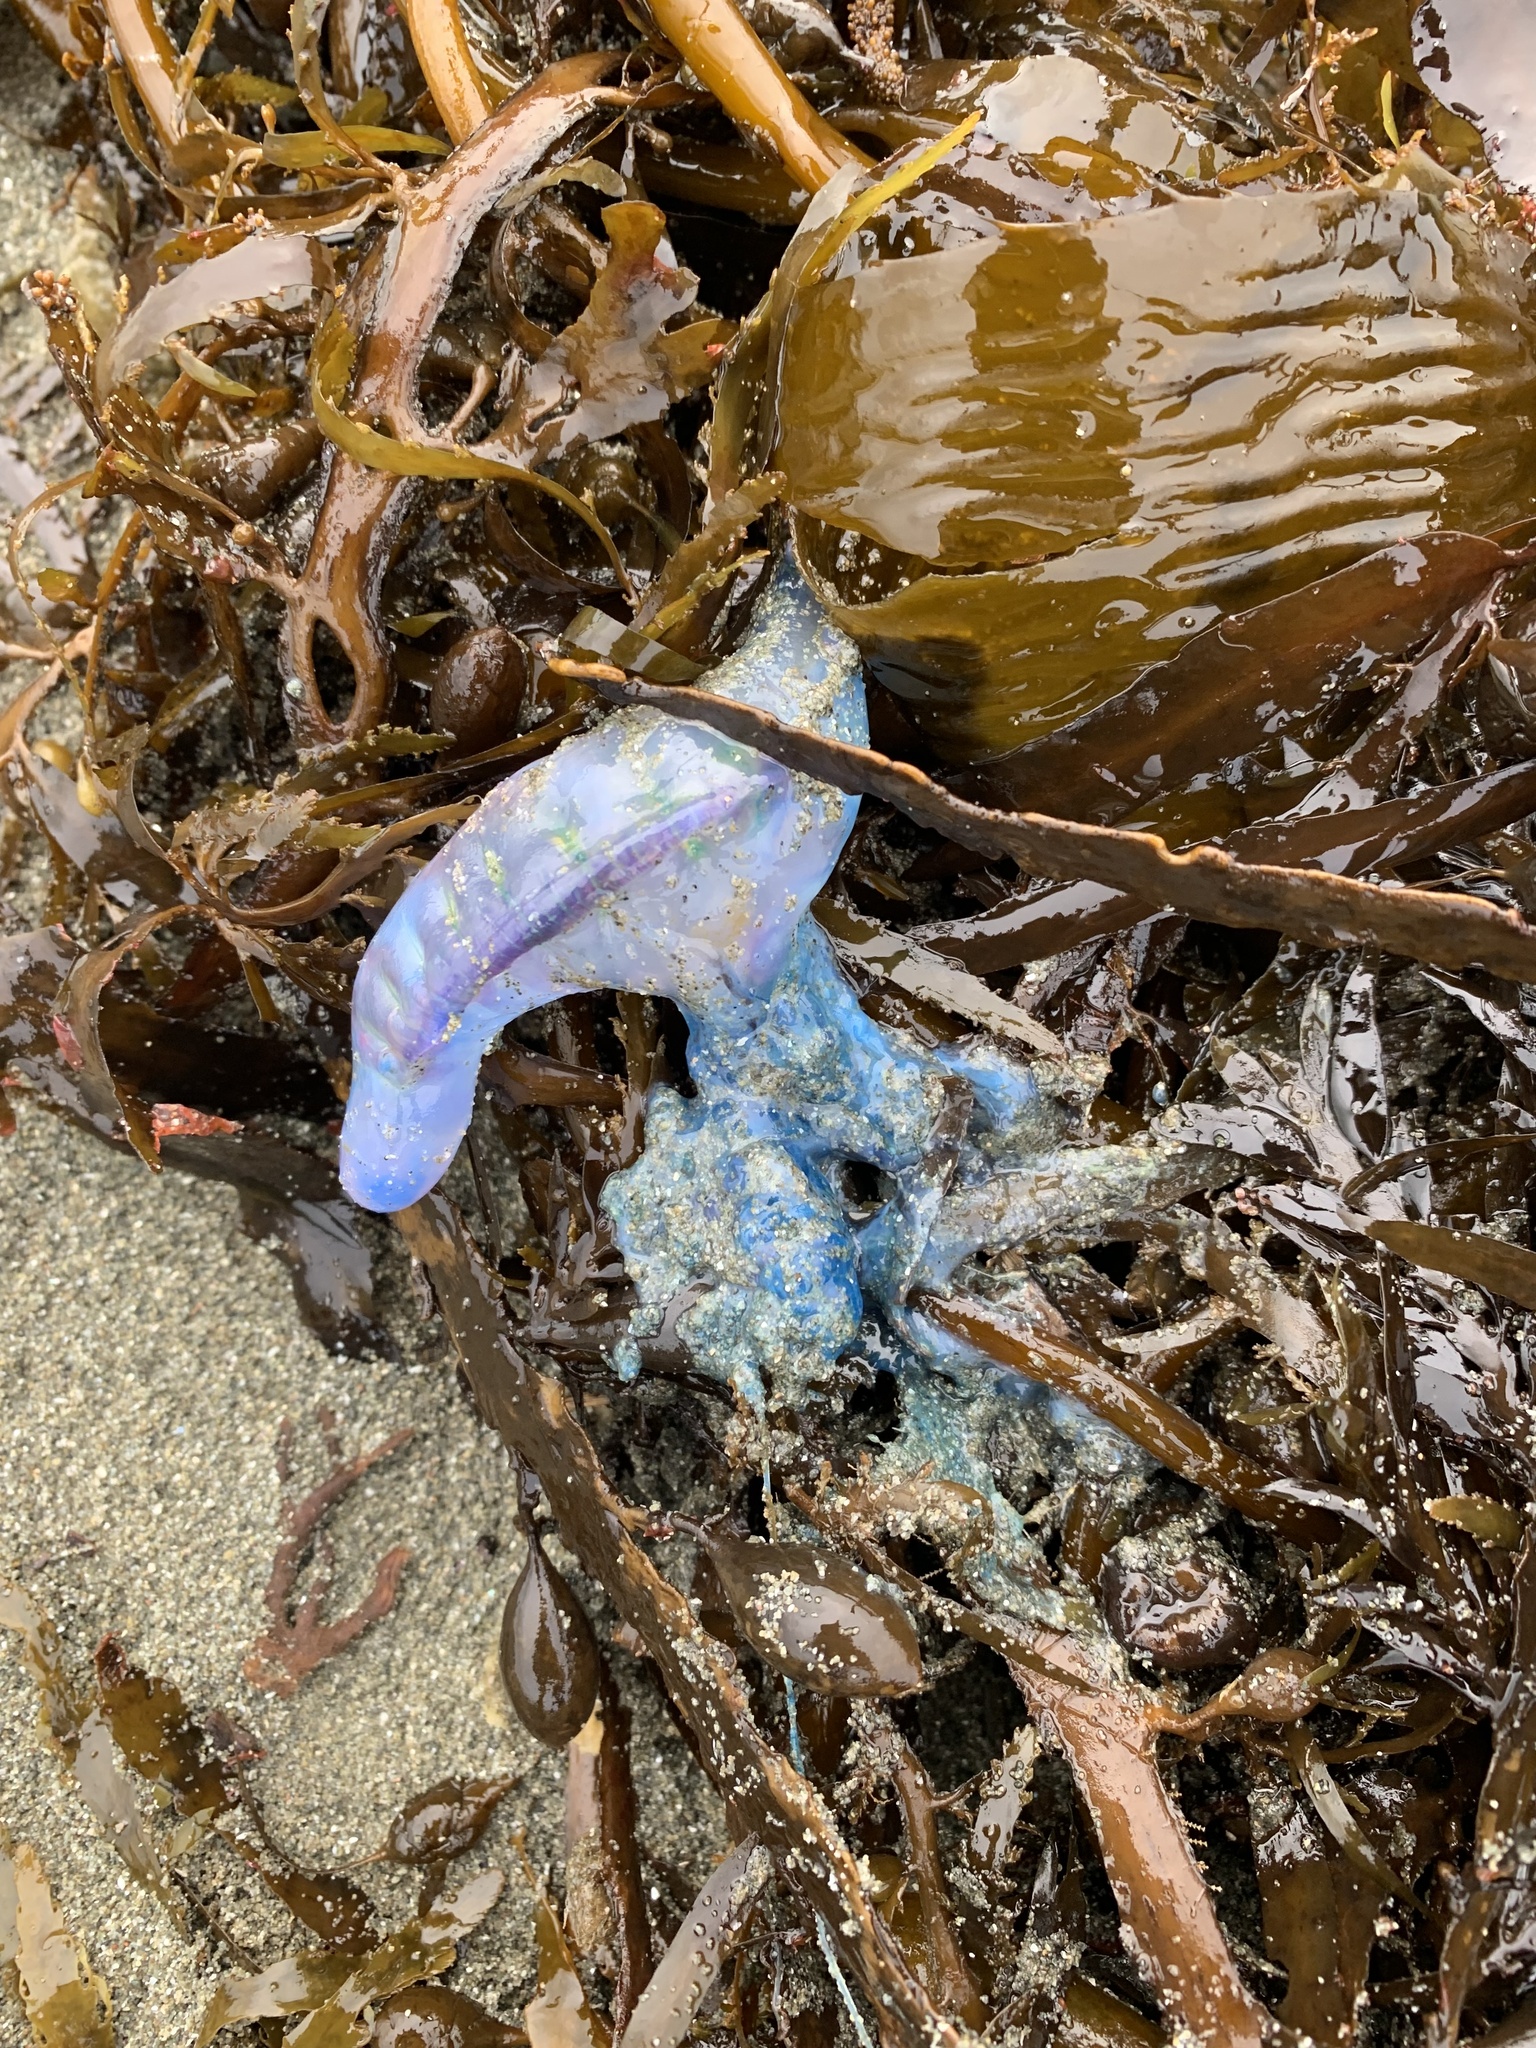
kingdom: Animalia
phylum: Cnidaria
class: Hydrozoa
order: Siphonophorae
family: Physaliidae
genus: Physalia
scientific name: Physalia physalis
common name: Portuguese man-of-war
